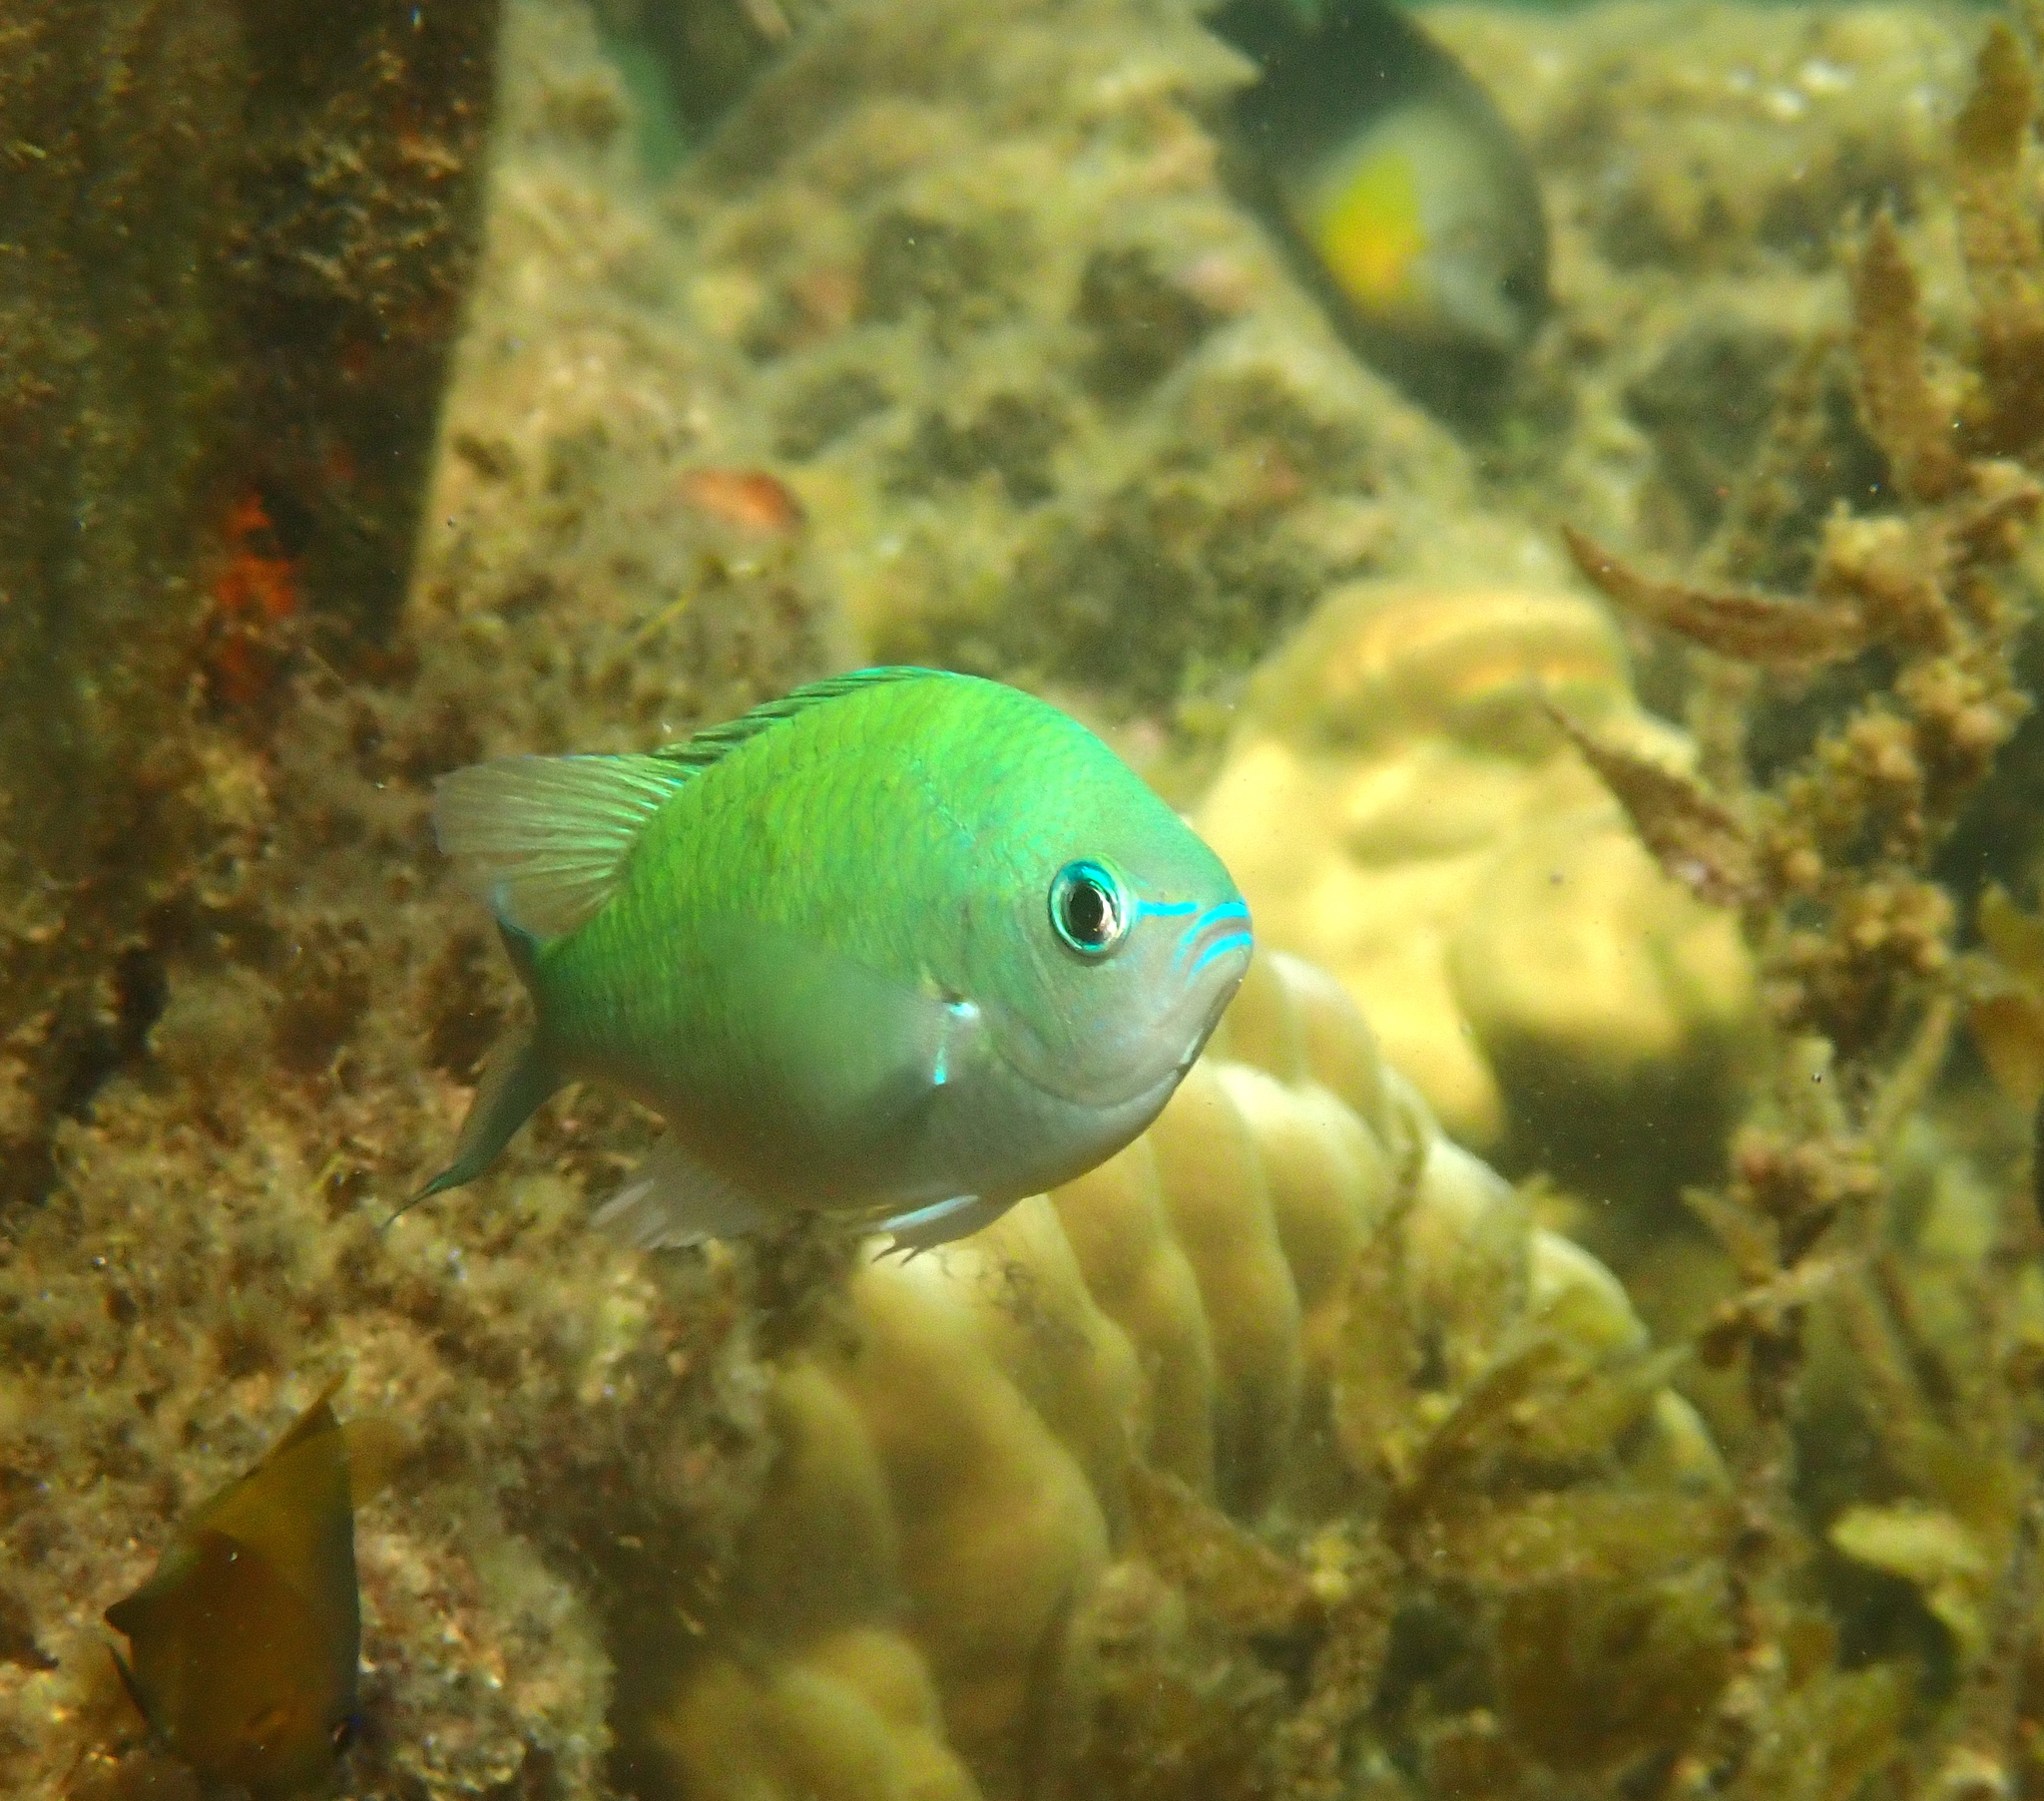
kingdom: Animalia
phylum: Chordata
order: Perciformes
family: Pomacentridae
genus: Chromis
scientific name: Chromis viridis
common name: Blue-green chromis
